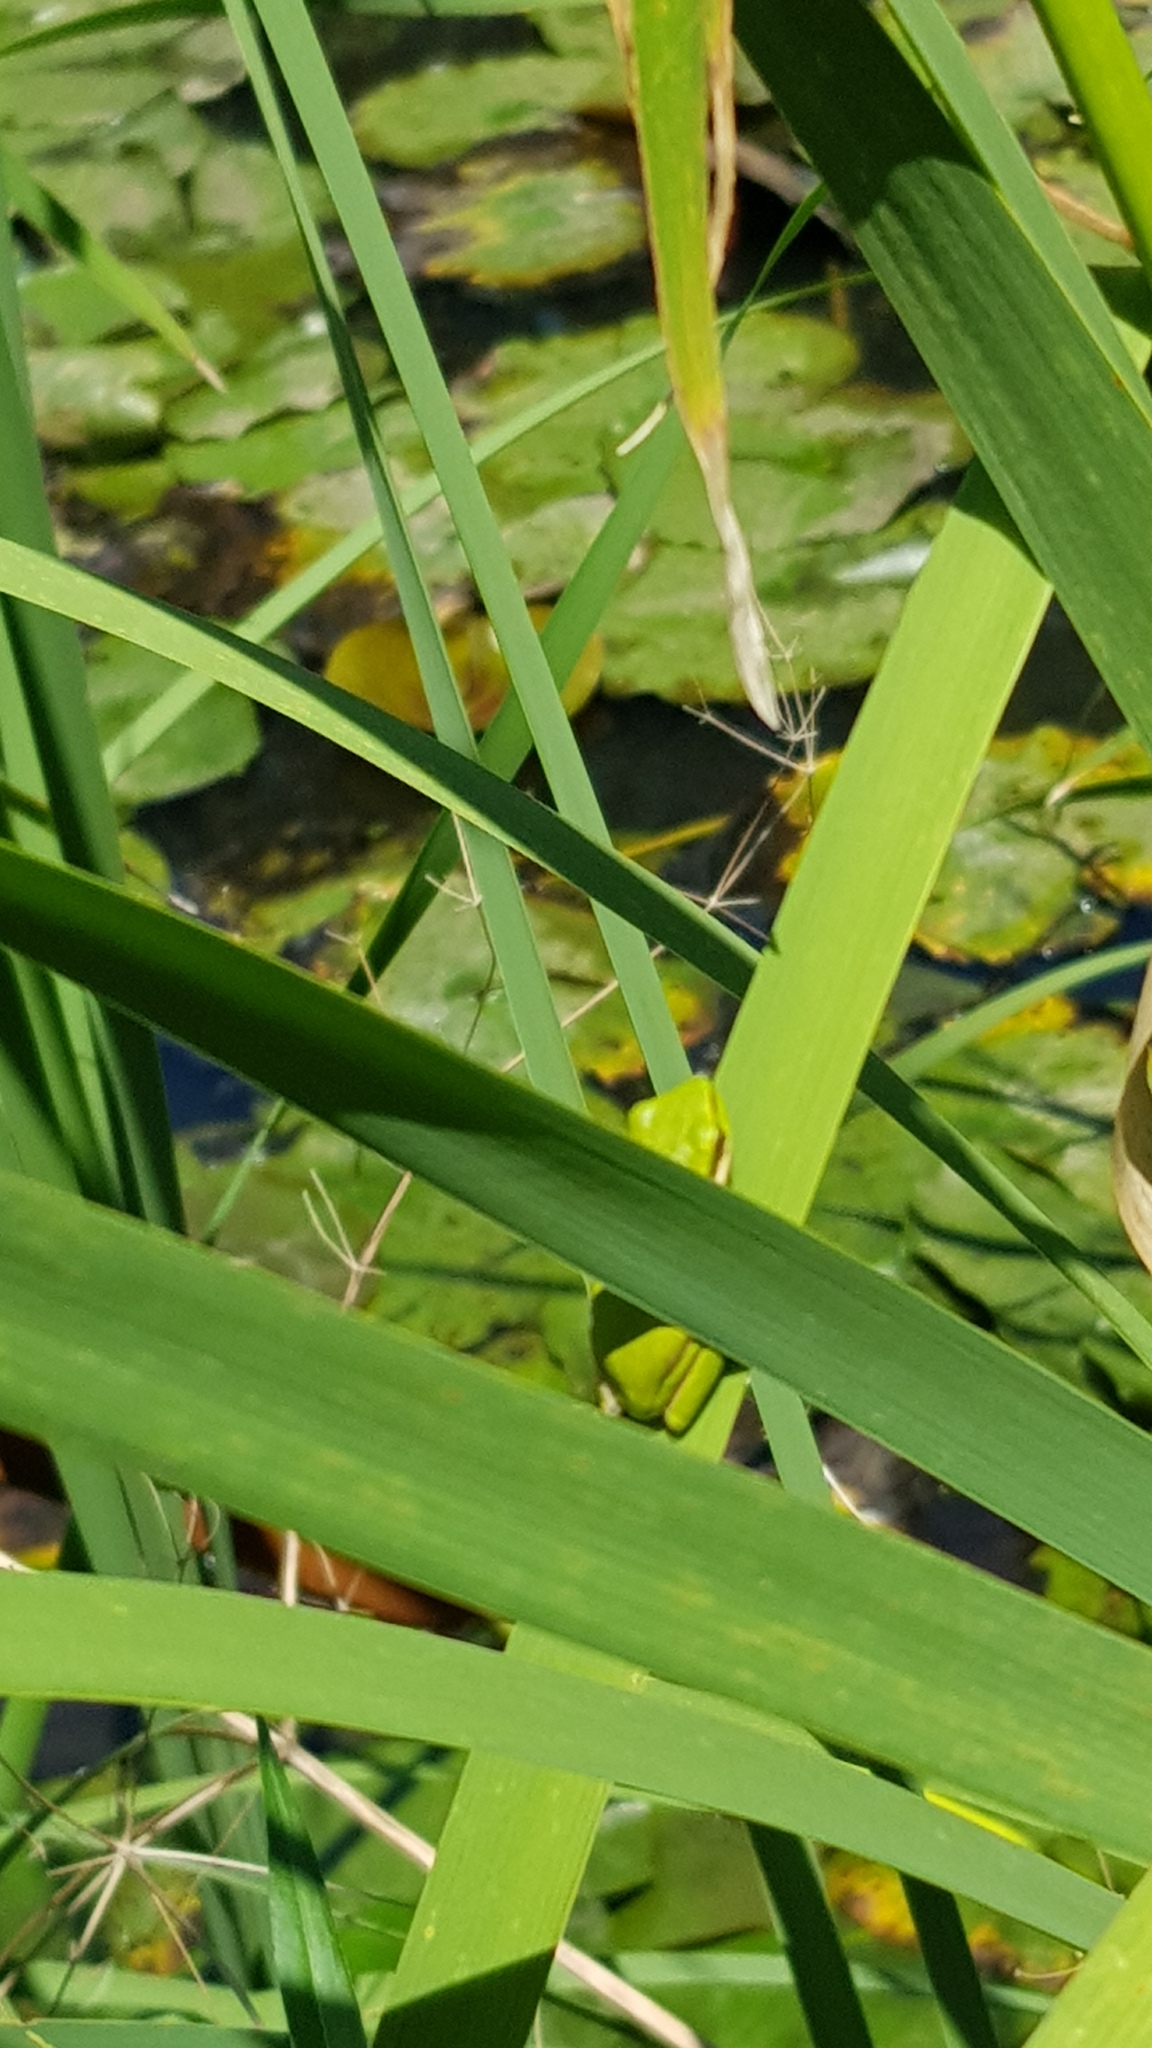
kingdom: Animalia
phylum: Chordata
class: Amphibia
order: Anura
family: Pelodryadidae
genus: Litoria
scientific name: Litoria fallax
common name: Eastern dwarf treefrog
